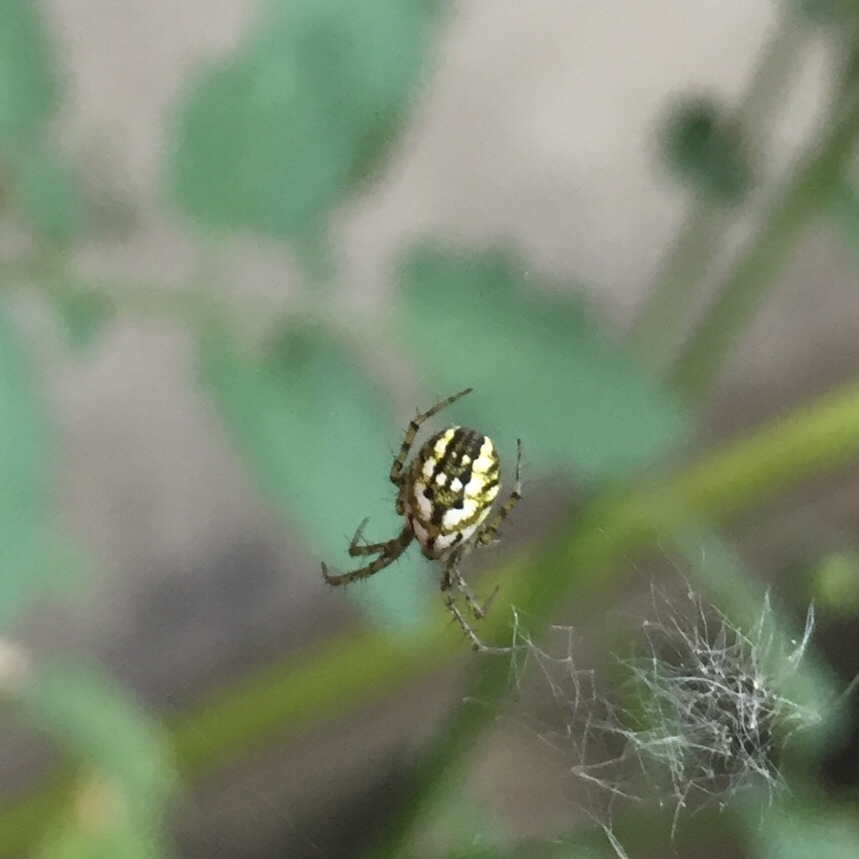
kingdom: Animalia
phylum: Arthropoda
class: Arachnida
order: Araneae
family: Araneidae
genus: Mangora
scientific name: Mangora acalypha
